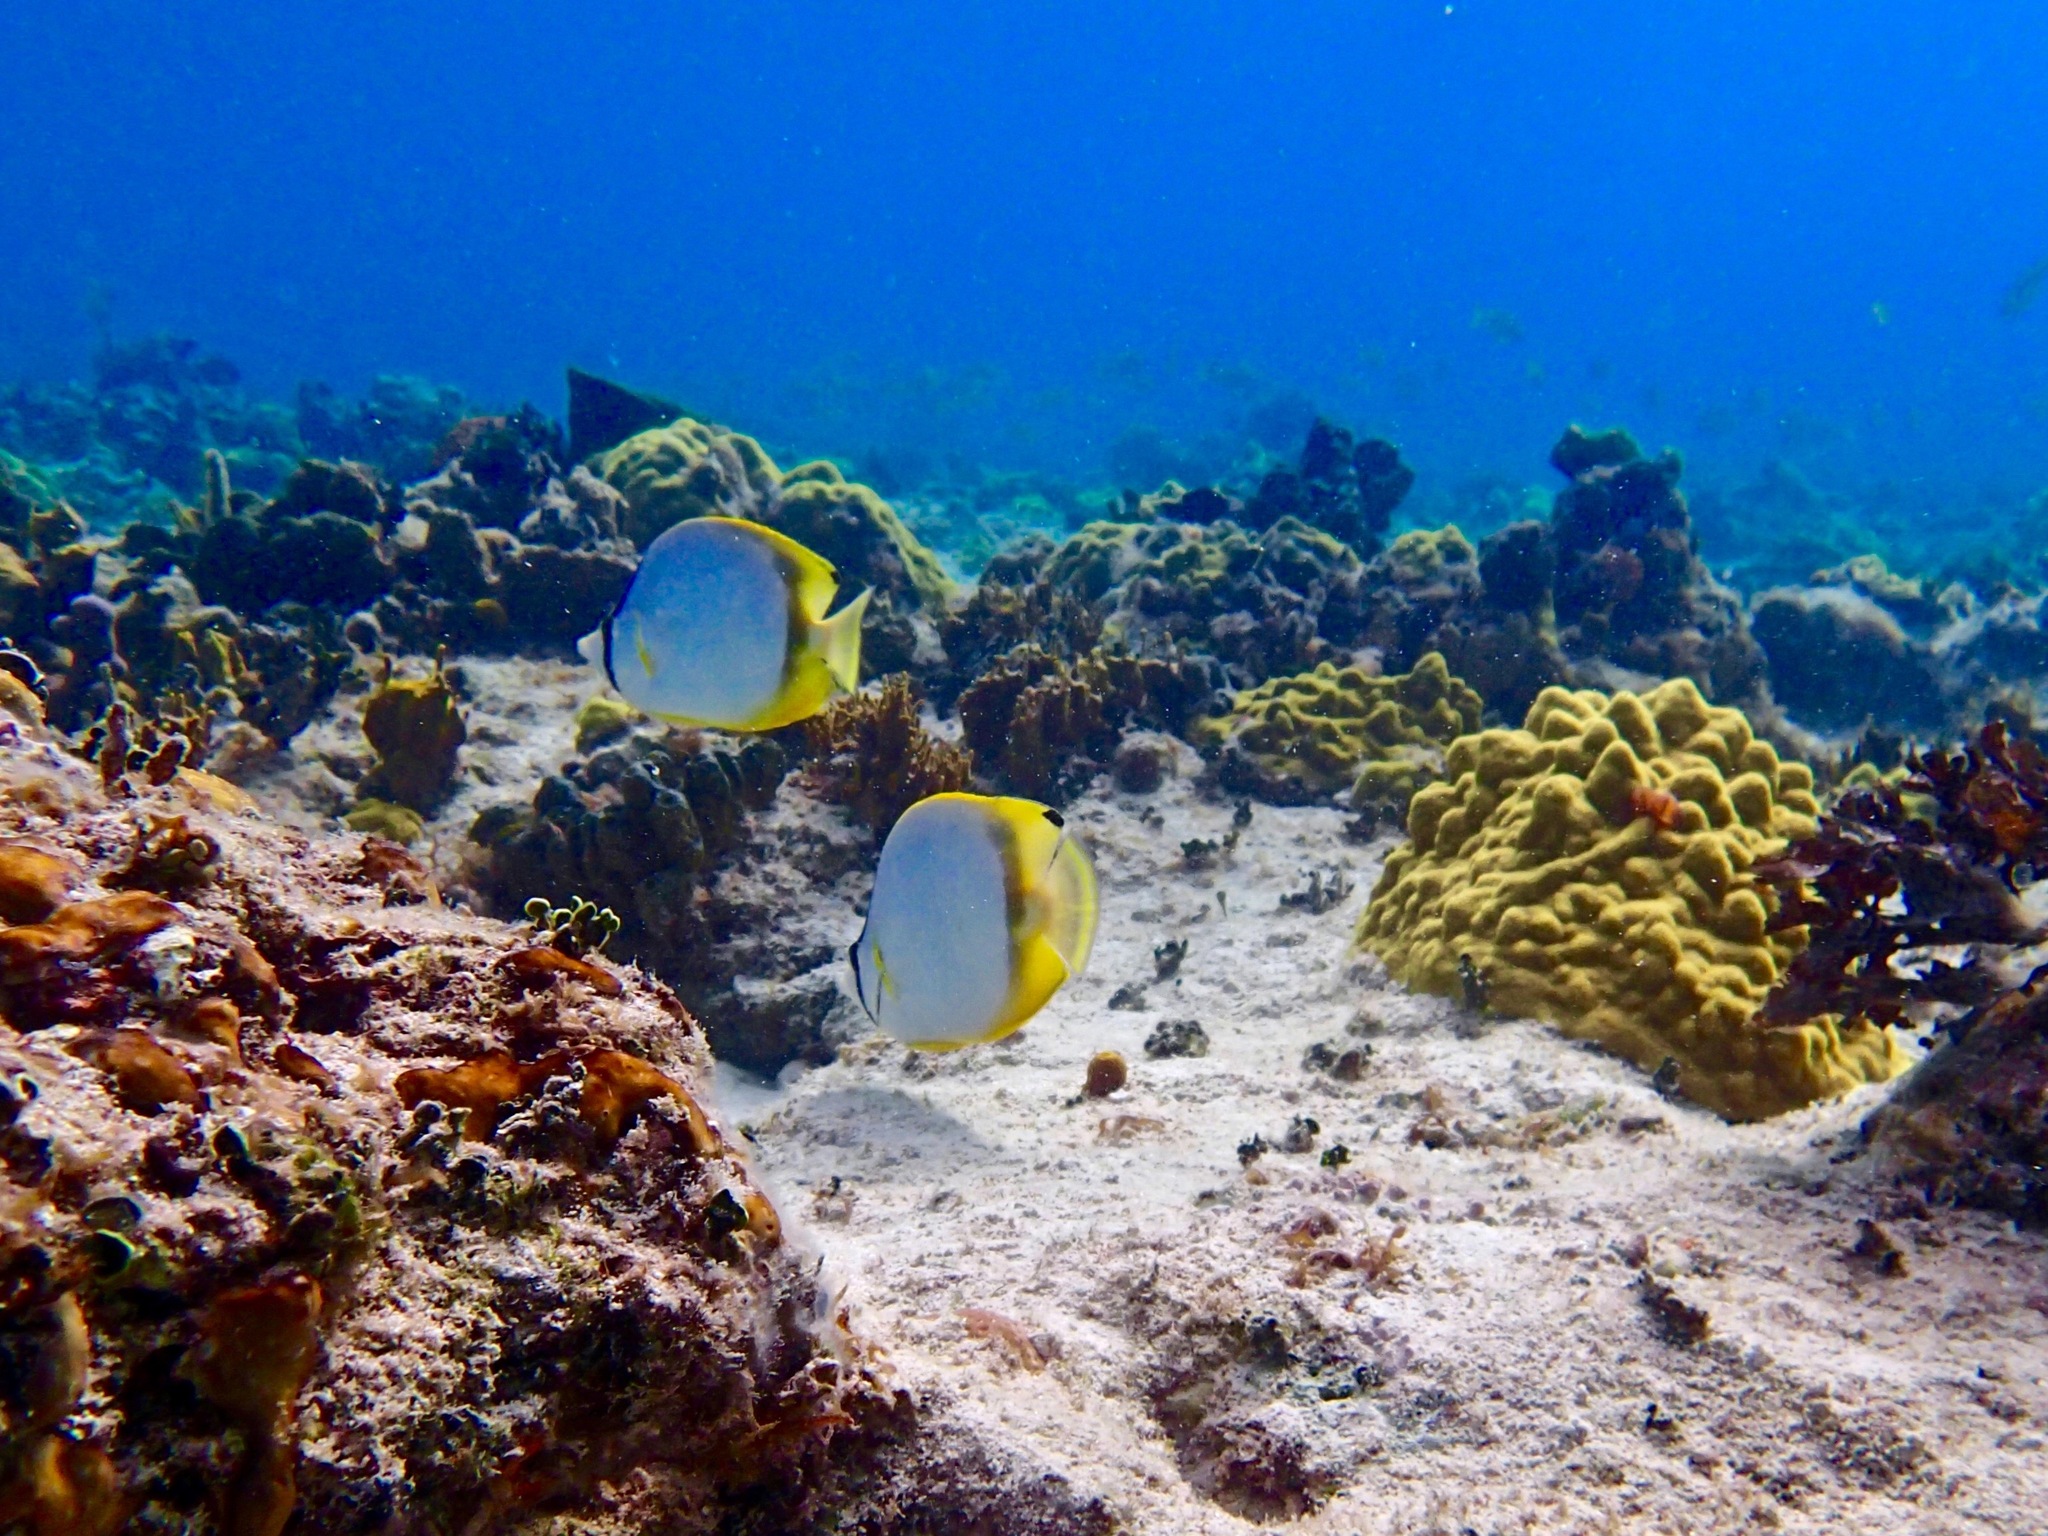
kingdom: Animalia
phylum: Chordata
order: Perciformes
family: Chaetodontidae
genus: Chaetodon
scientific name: Chaetodon ocellatus
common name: Spotfin butterflyfish
